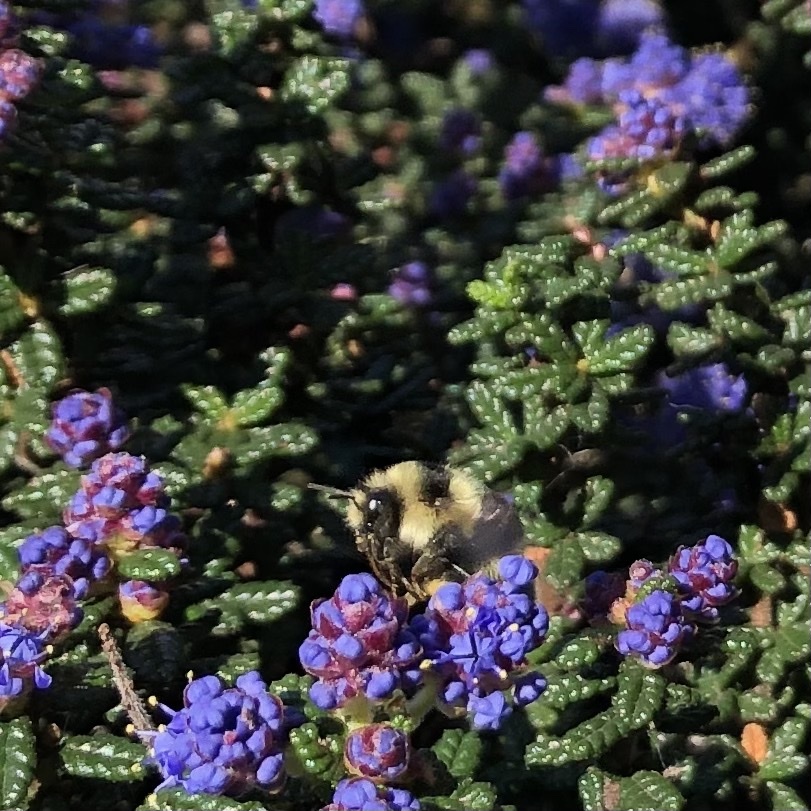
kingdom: Animalia
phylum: Arthropoda
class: Insecta
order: Hymenoptera
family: Apidae
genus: Bombus
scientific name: Bombus melanopygus
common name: Black tail bumble bee
